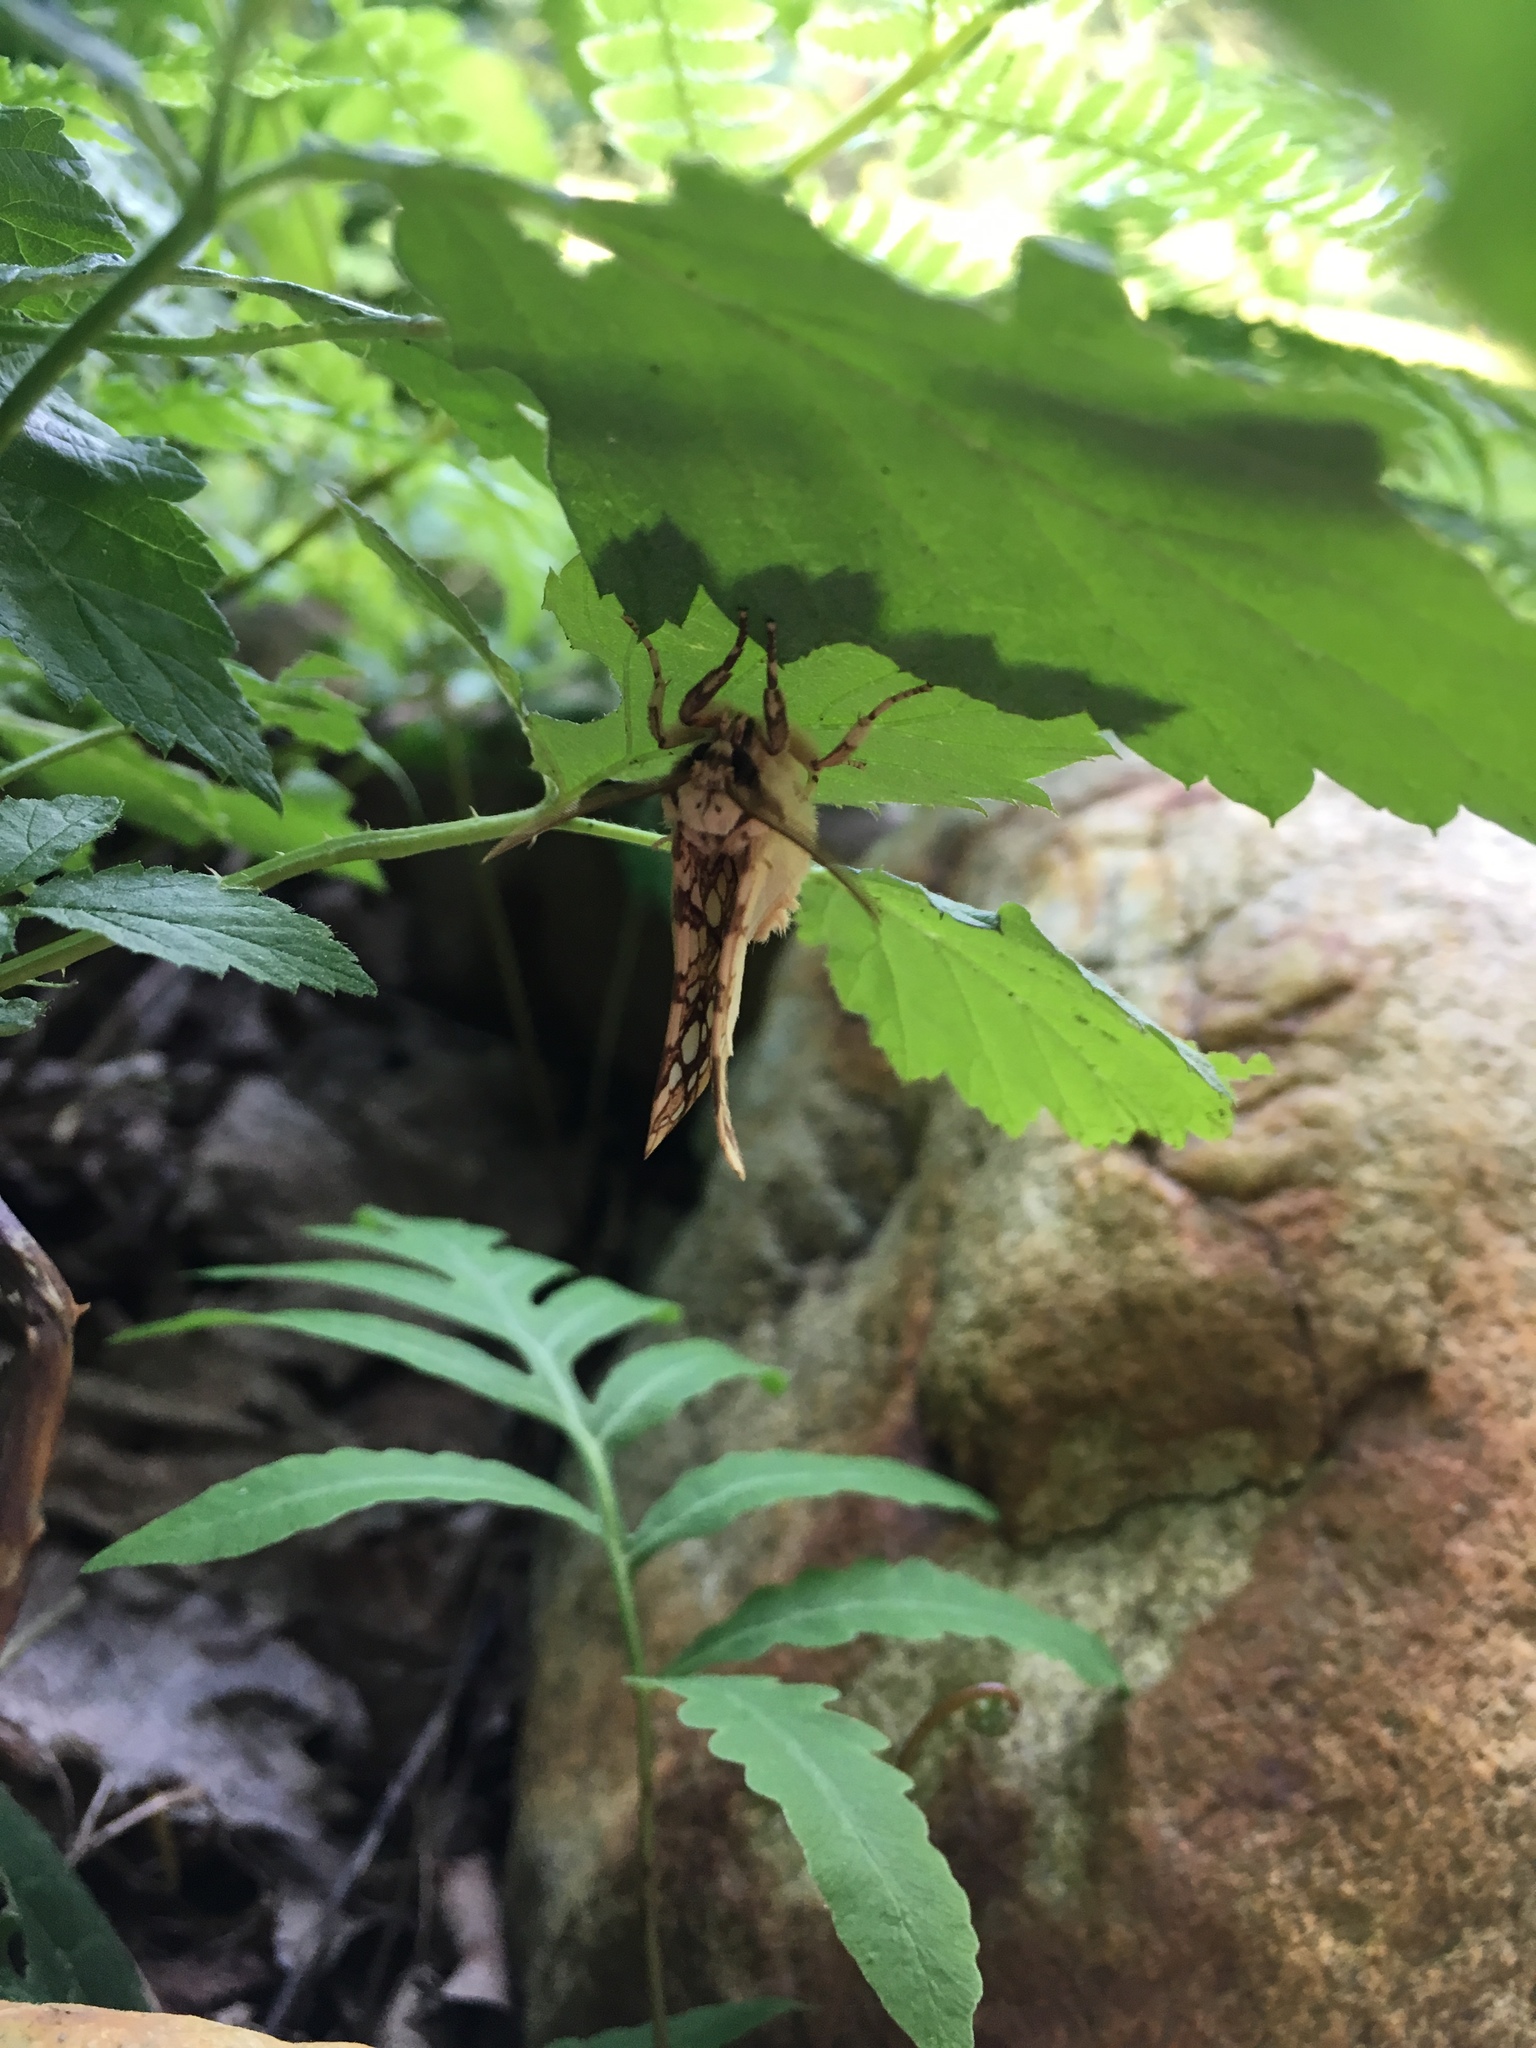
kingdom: Animalia
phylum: Arthropoda
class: Insecta
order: Lepidoptera
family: Erebidae
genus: Lophocampa
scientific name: Lophocampa caryae
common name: Hickory tussock moth
